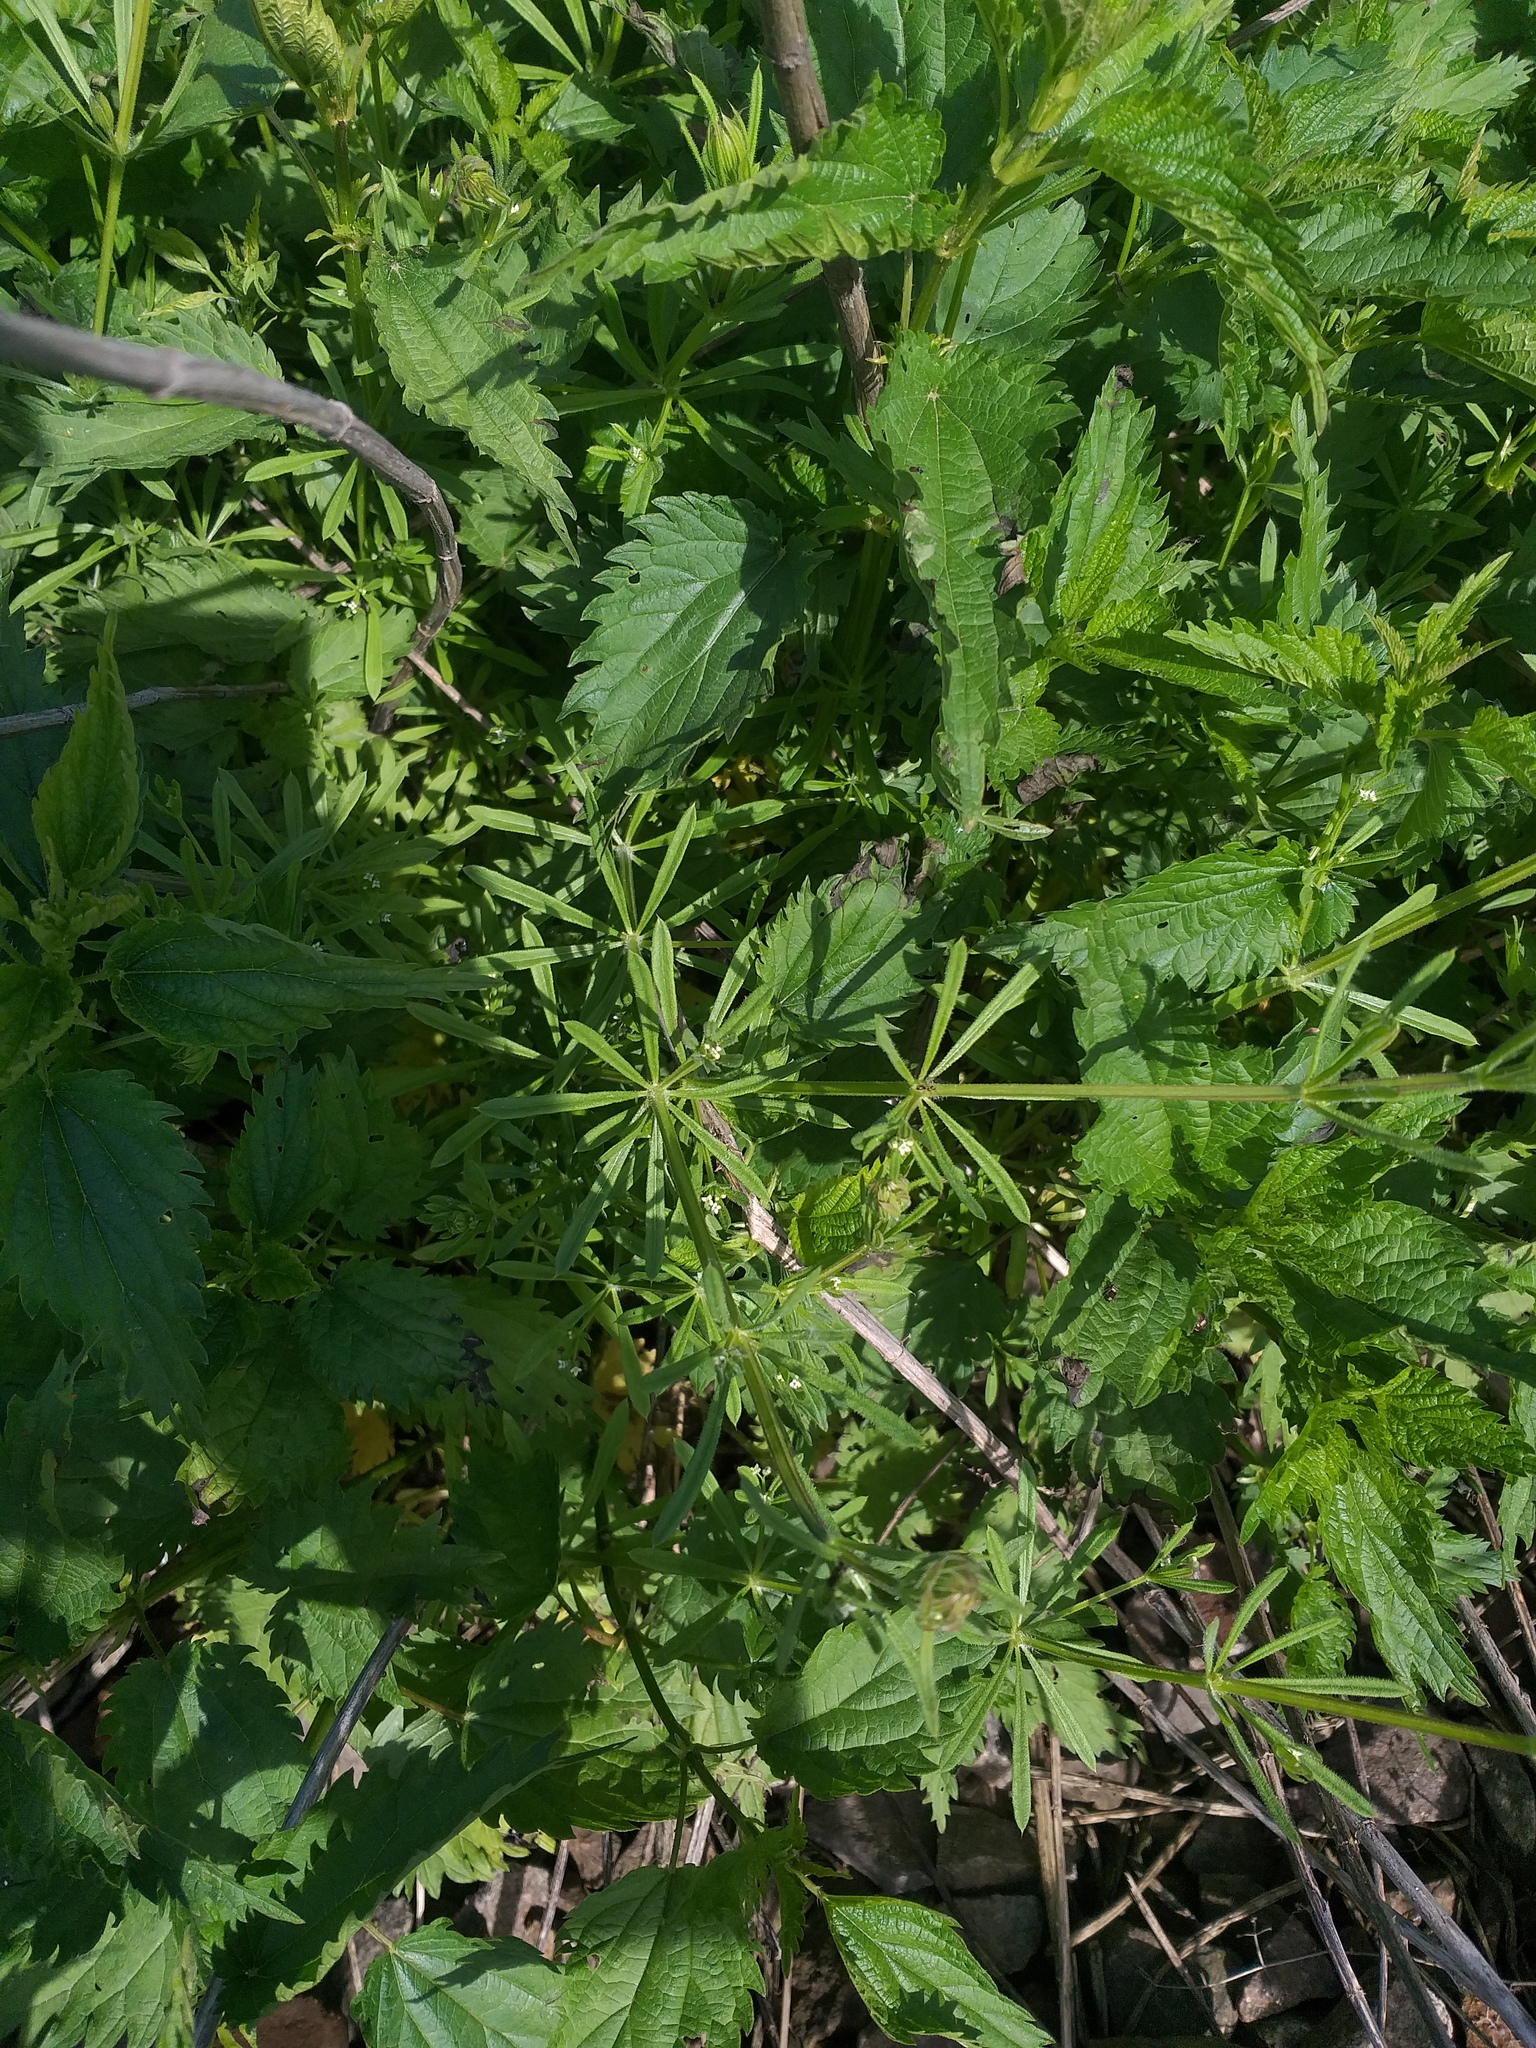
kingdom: Plantae
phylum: Tracheophyta
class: Magnoliopsida
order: Gentianales
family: Rubiaceae
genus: Galium
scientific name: Galium aparine
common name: Cleavers
